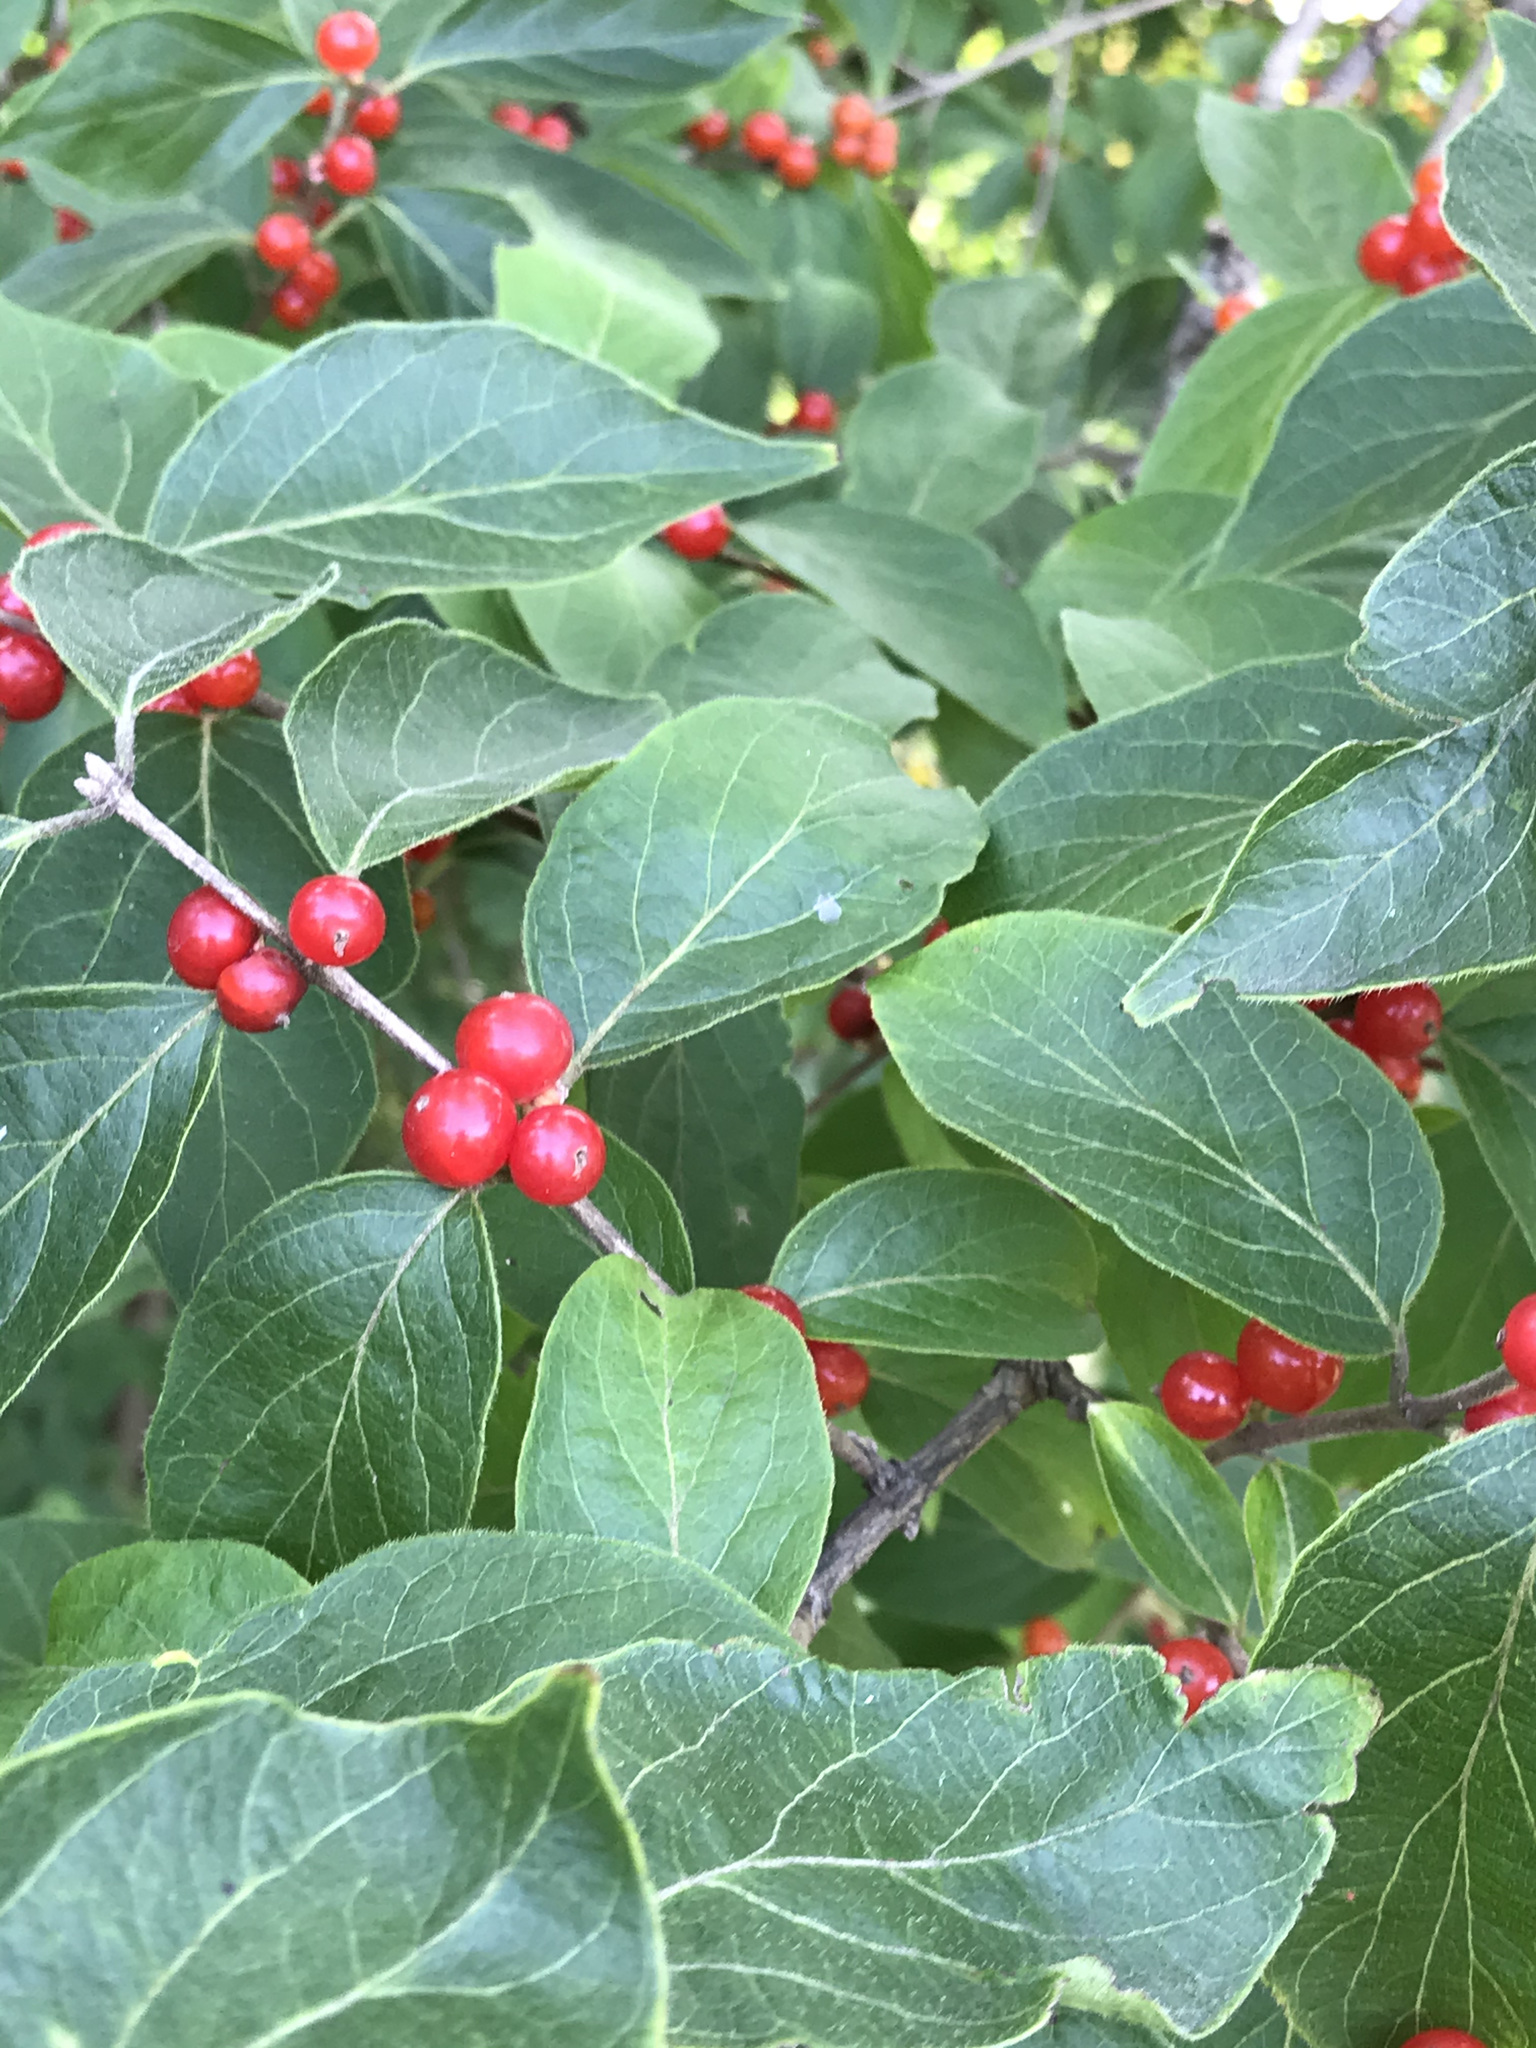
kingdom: Plantae
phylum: Tracheophyta
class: Magnoliopsida
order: Dipsacales
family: Caprifoliaceae
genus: Lonicera
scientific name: Lonicera maackii
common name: Amur honeysuckle
